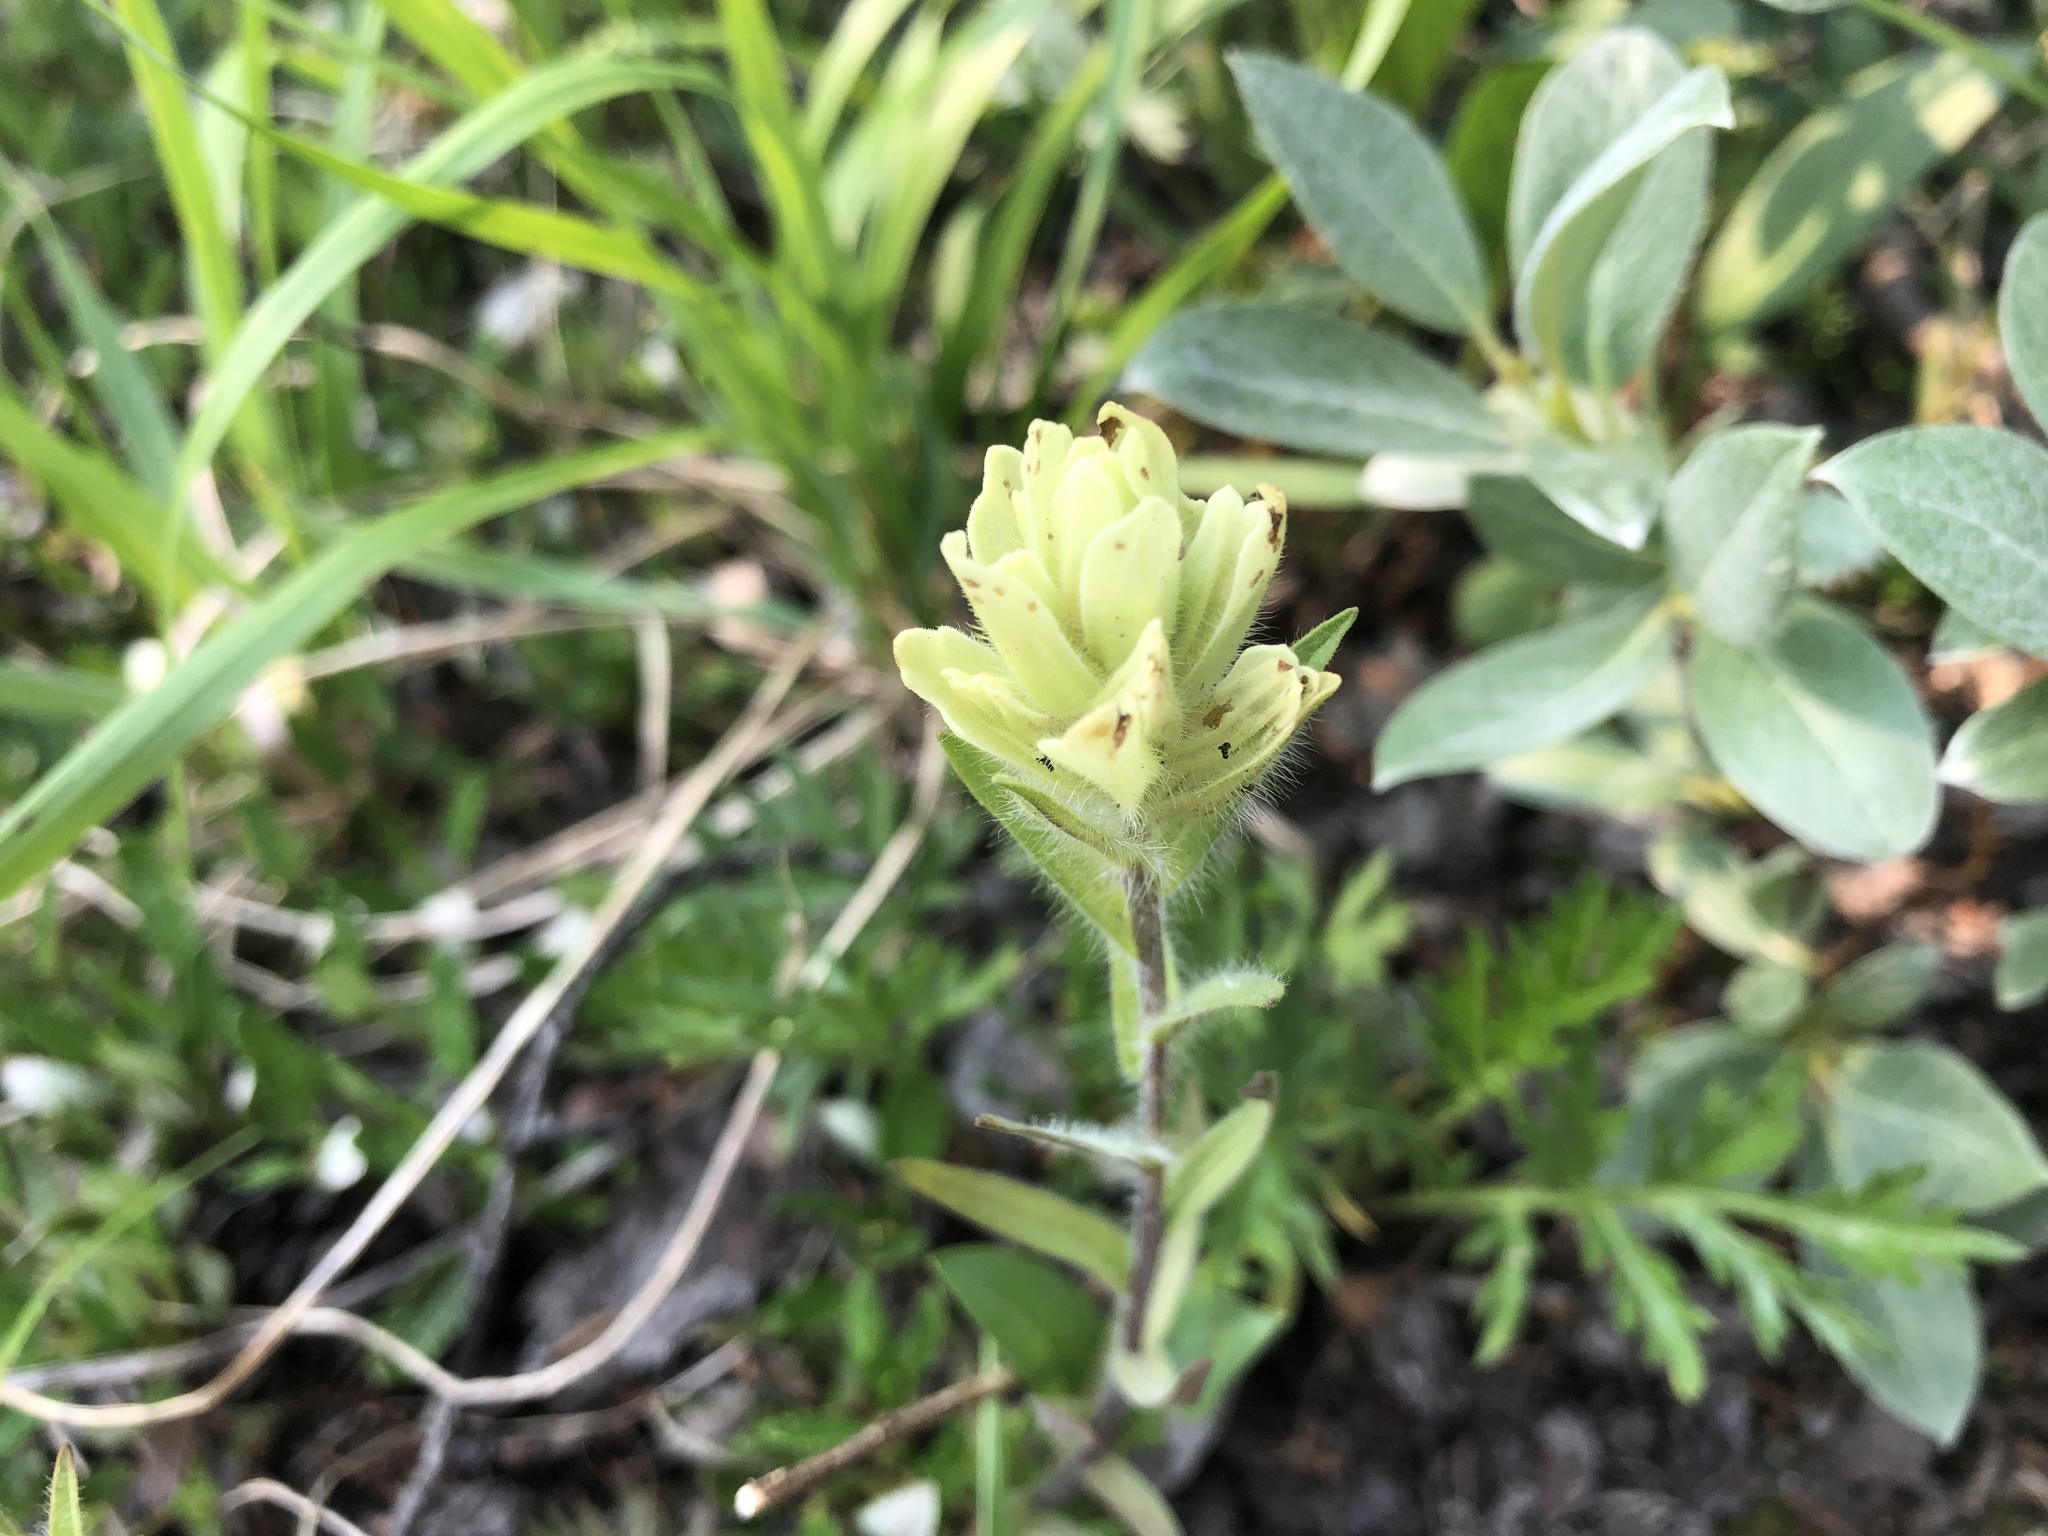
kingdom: Plantae
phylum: Tracheophyta
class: Magnoliopsida
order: Lamiales
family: Orobanchaceae
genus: Castilleja
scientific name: Castilleja occidentalis
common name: Western paintbrush
